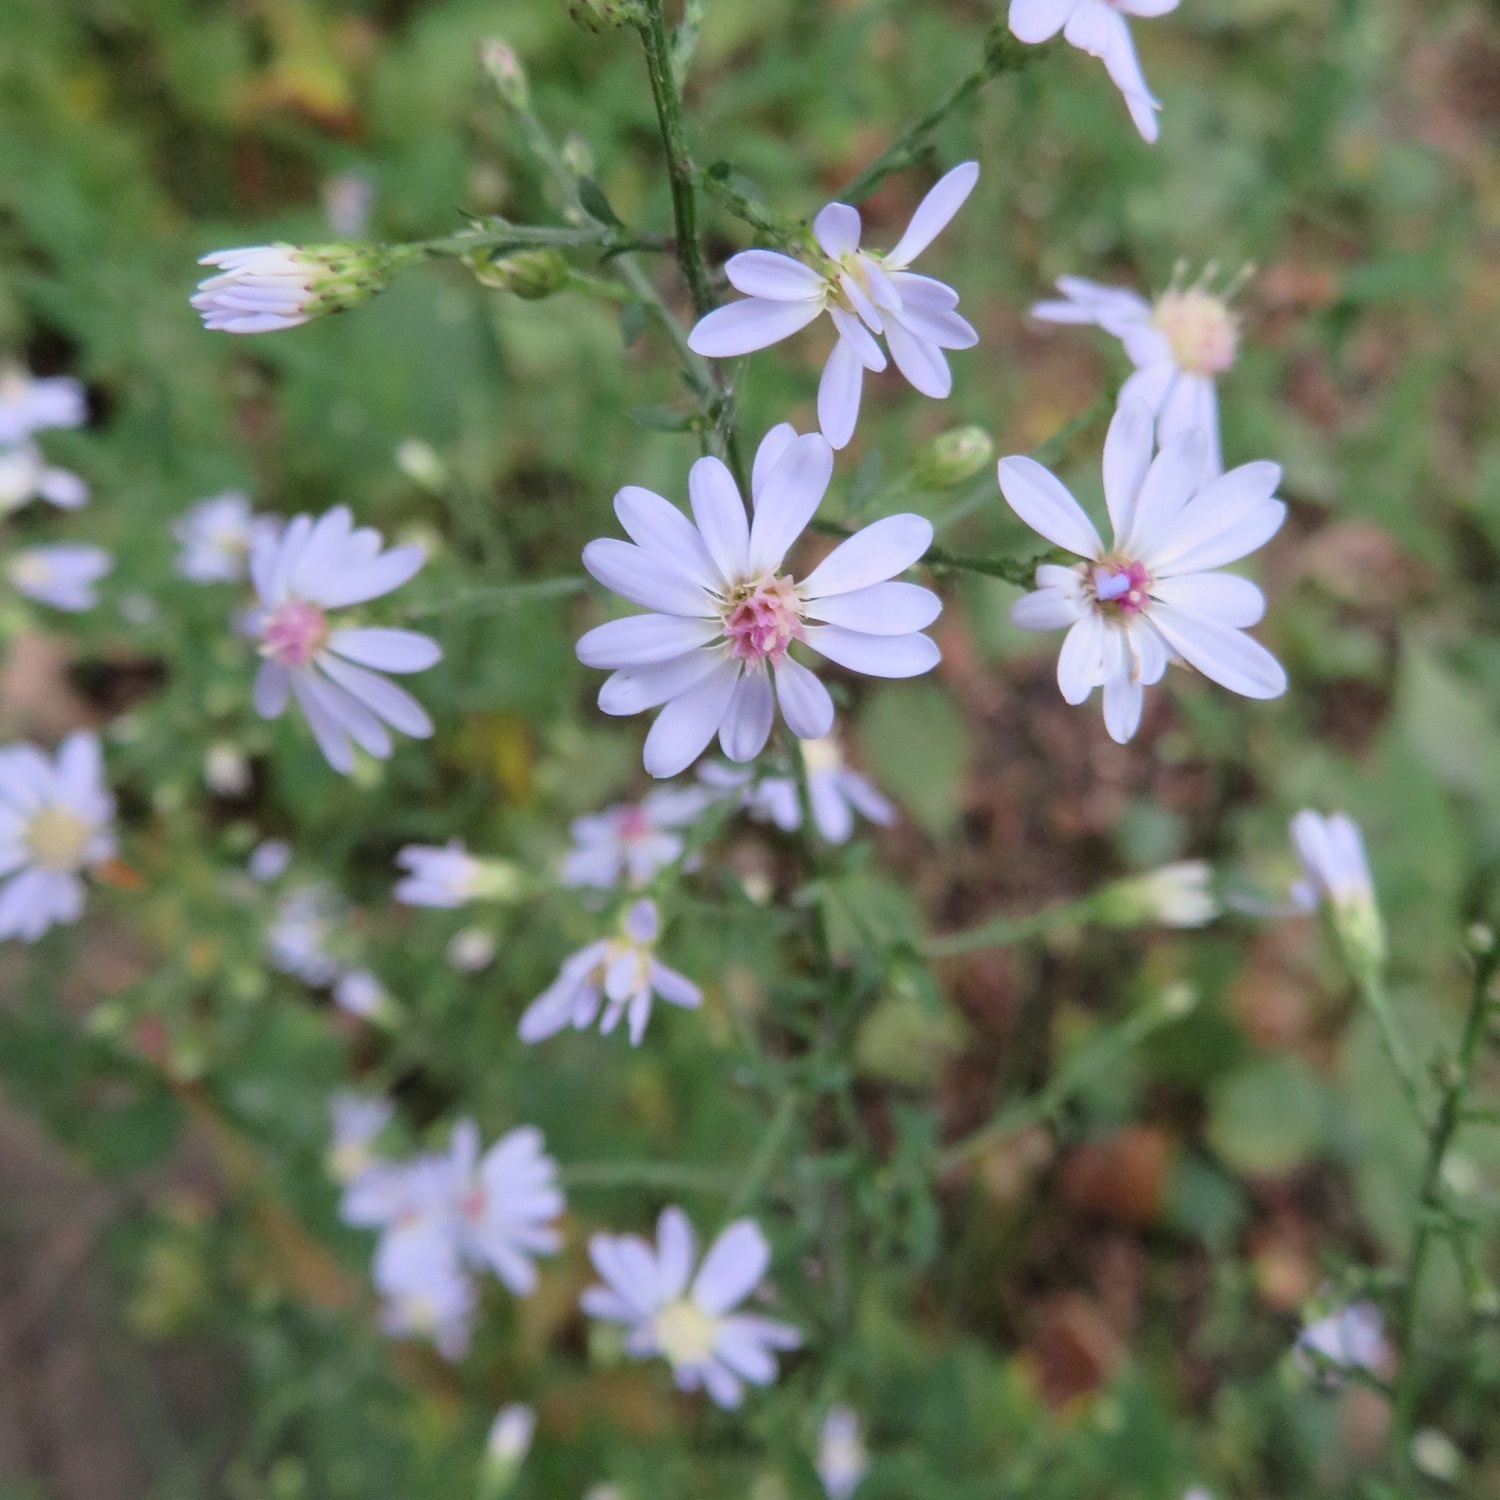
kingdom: Plantae
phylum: Tracheophyta
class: Magnoliopsida
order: Asterales
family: Asteraceae
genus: Symphyotrichum
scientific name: Symphyotrichum cordifolium
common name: Beeweed
